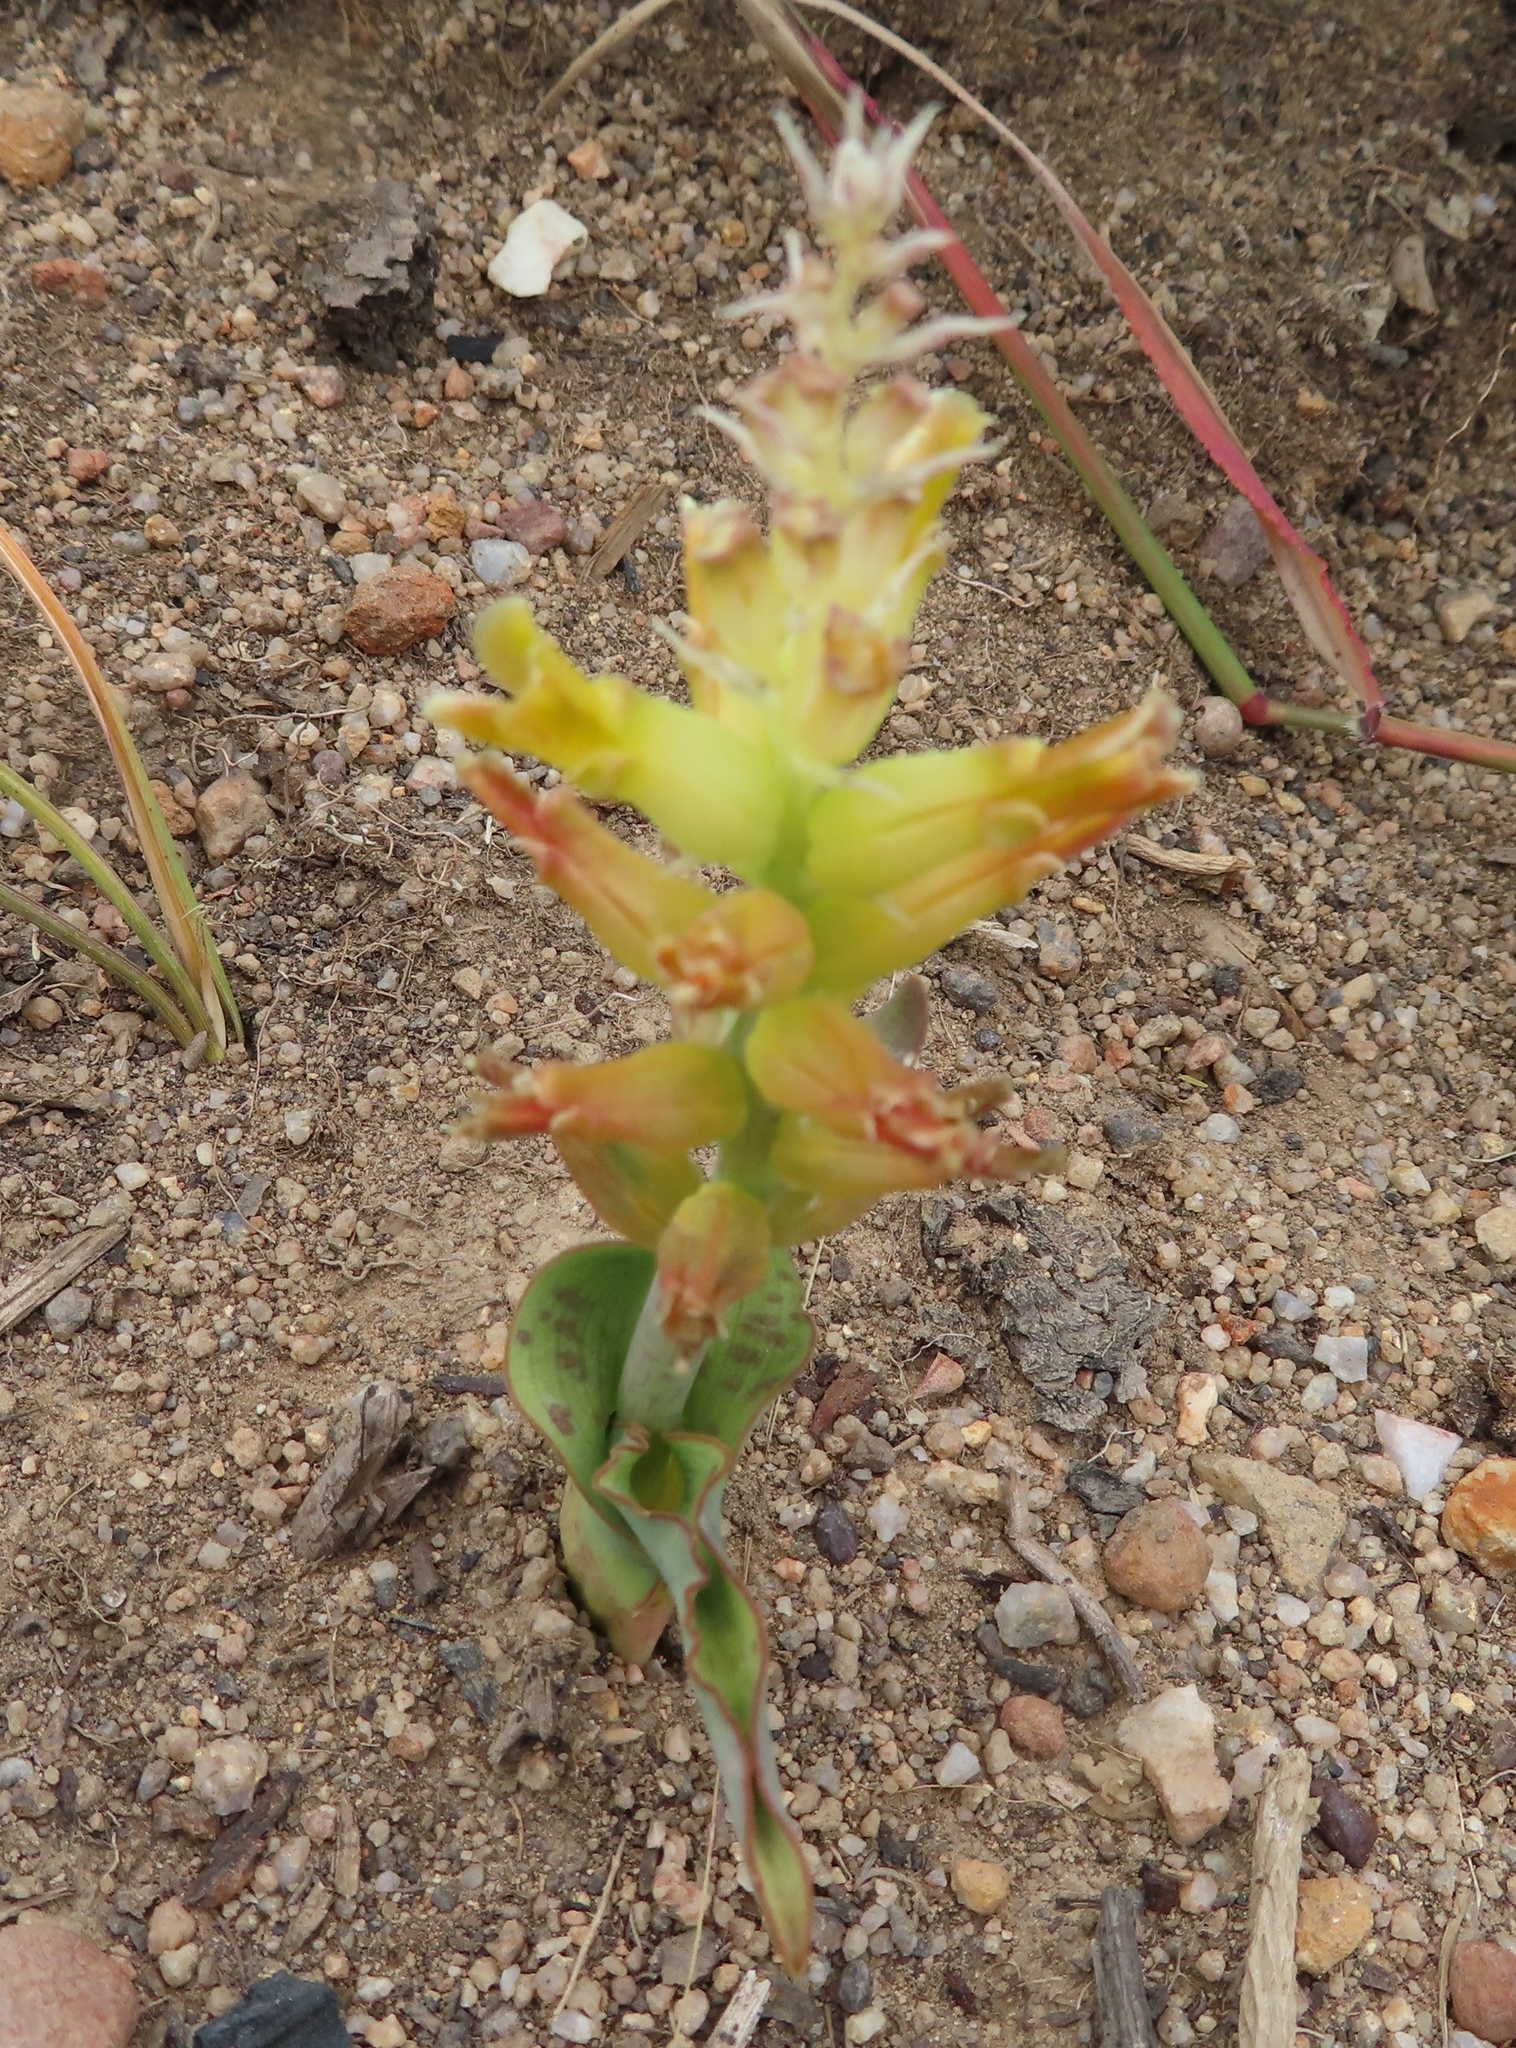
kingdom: Plantae
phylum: Tracheophyta
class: Liliopsida
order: Asparagales
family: Asparagaceae
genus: Lachenalia
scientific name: Lachenalia orchioides
